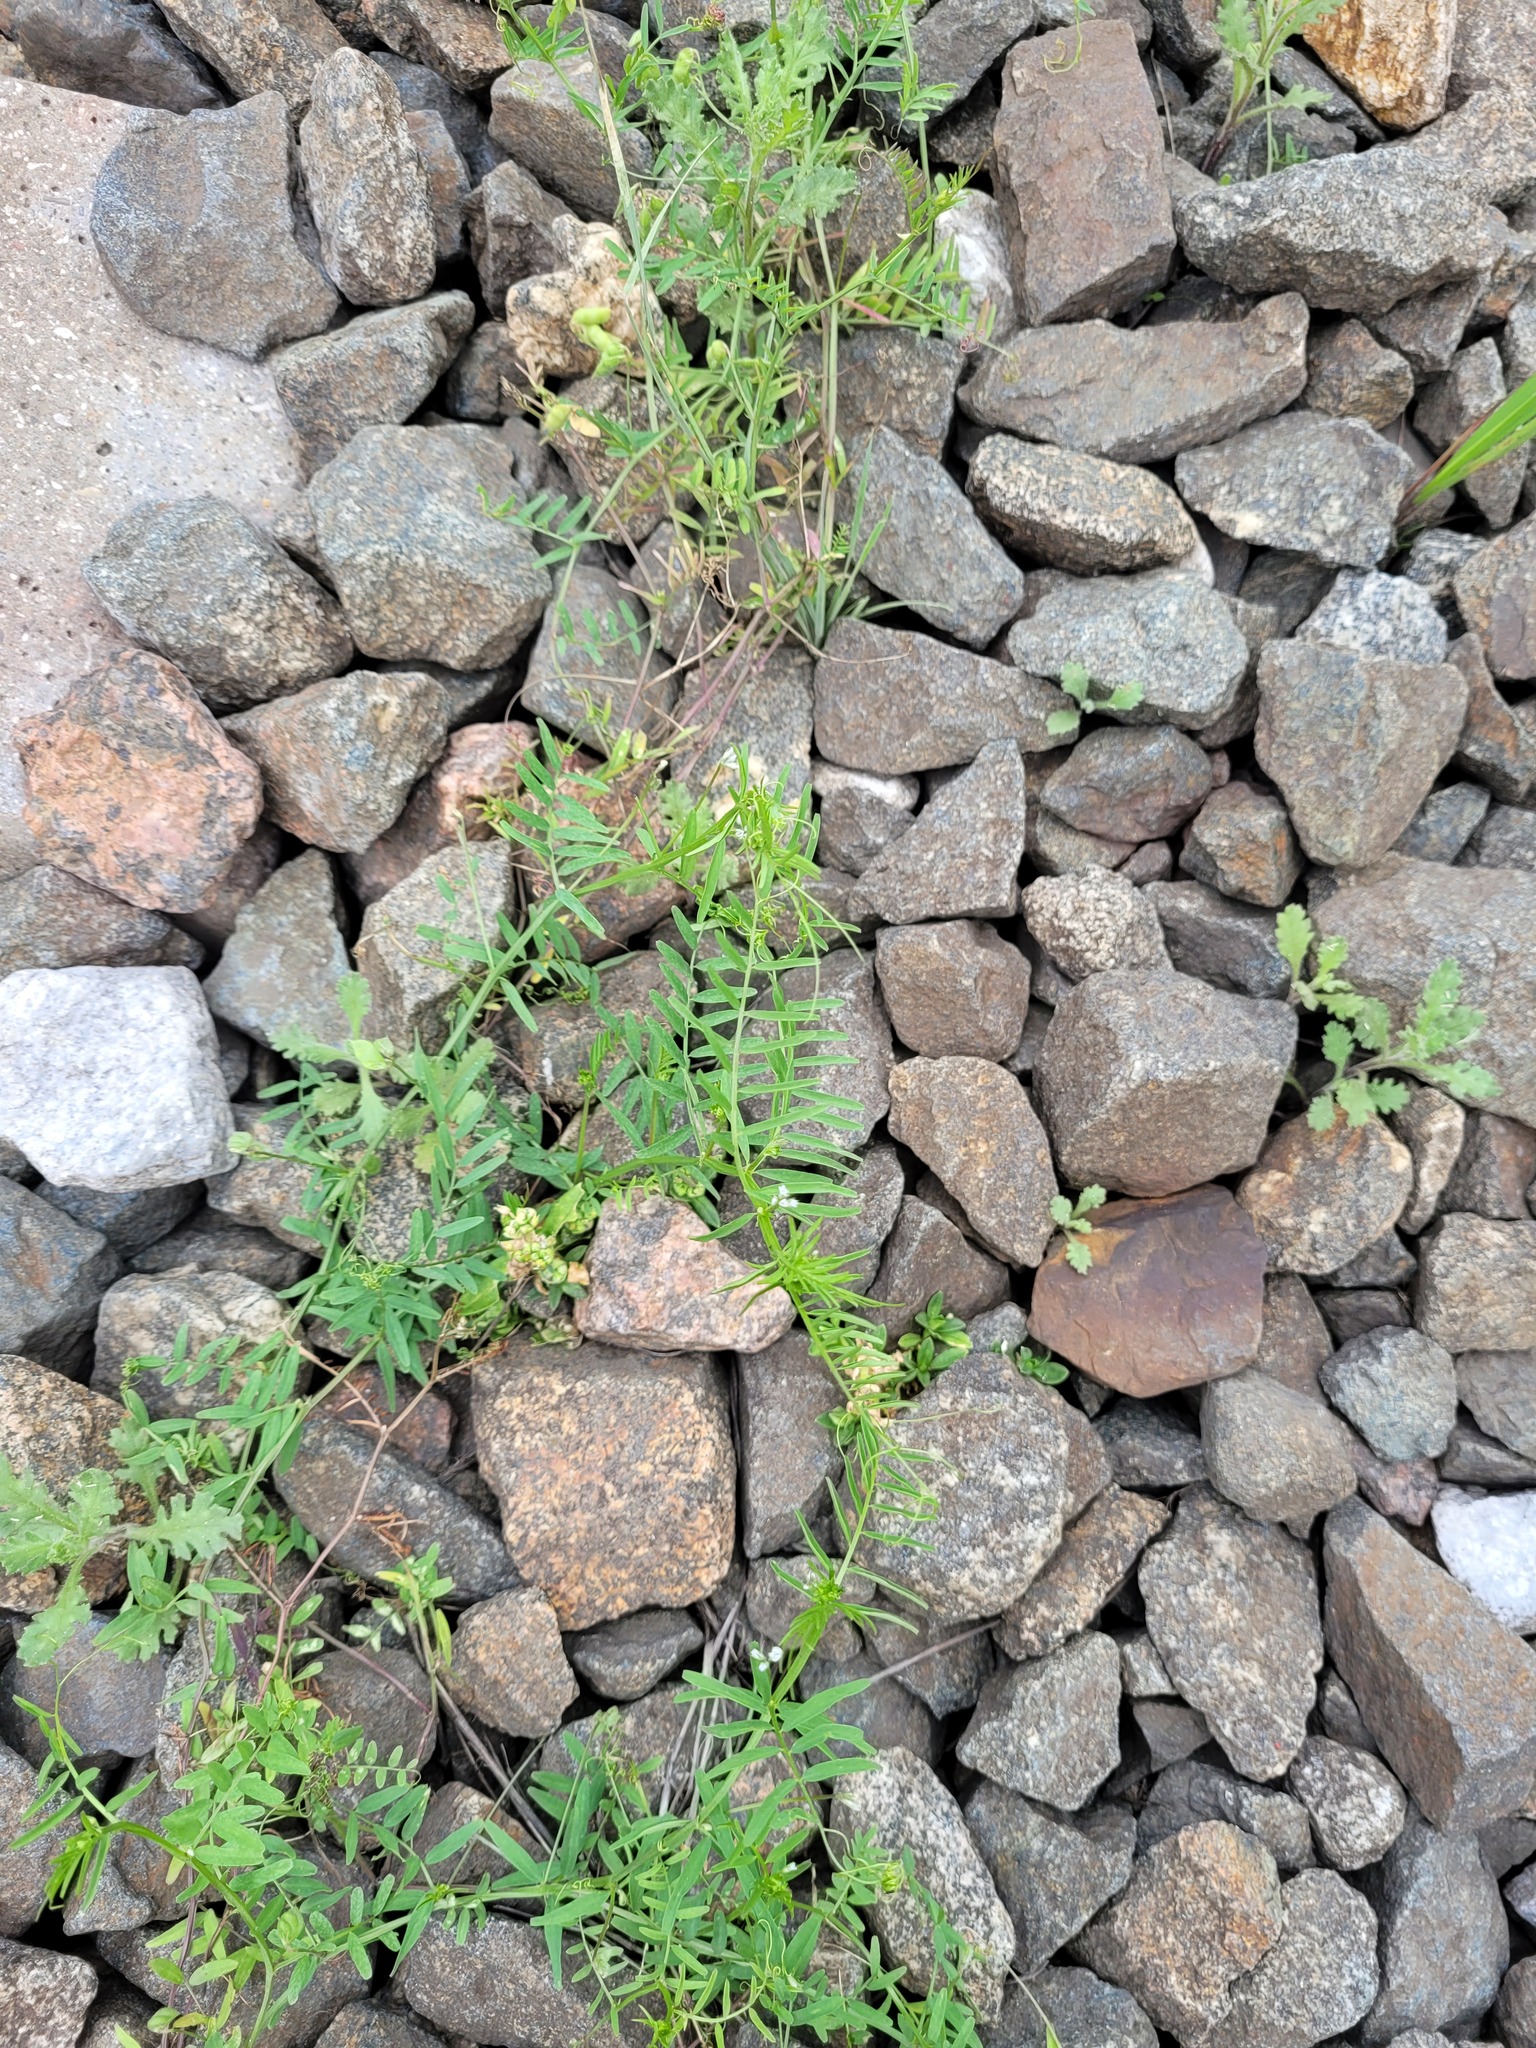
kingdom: Plantae
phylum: Tracheophyta
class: Magnoliopsida
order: Fabales
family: Fabaceae
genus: Vicia
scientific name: Vicia hirsuta
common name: Tiny vetch
